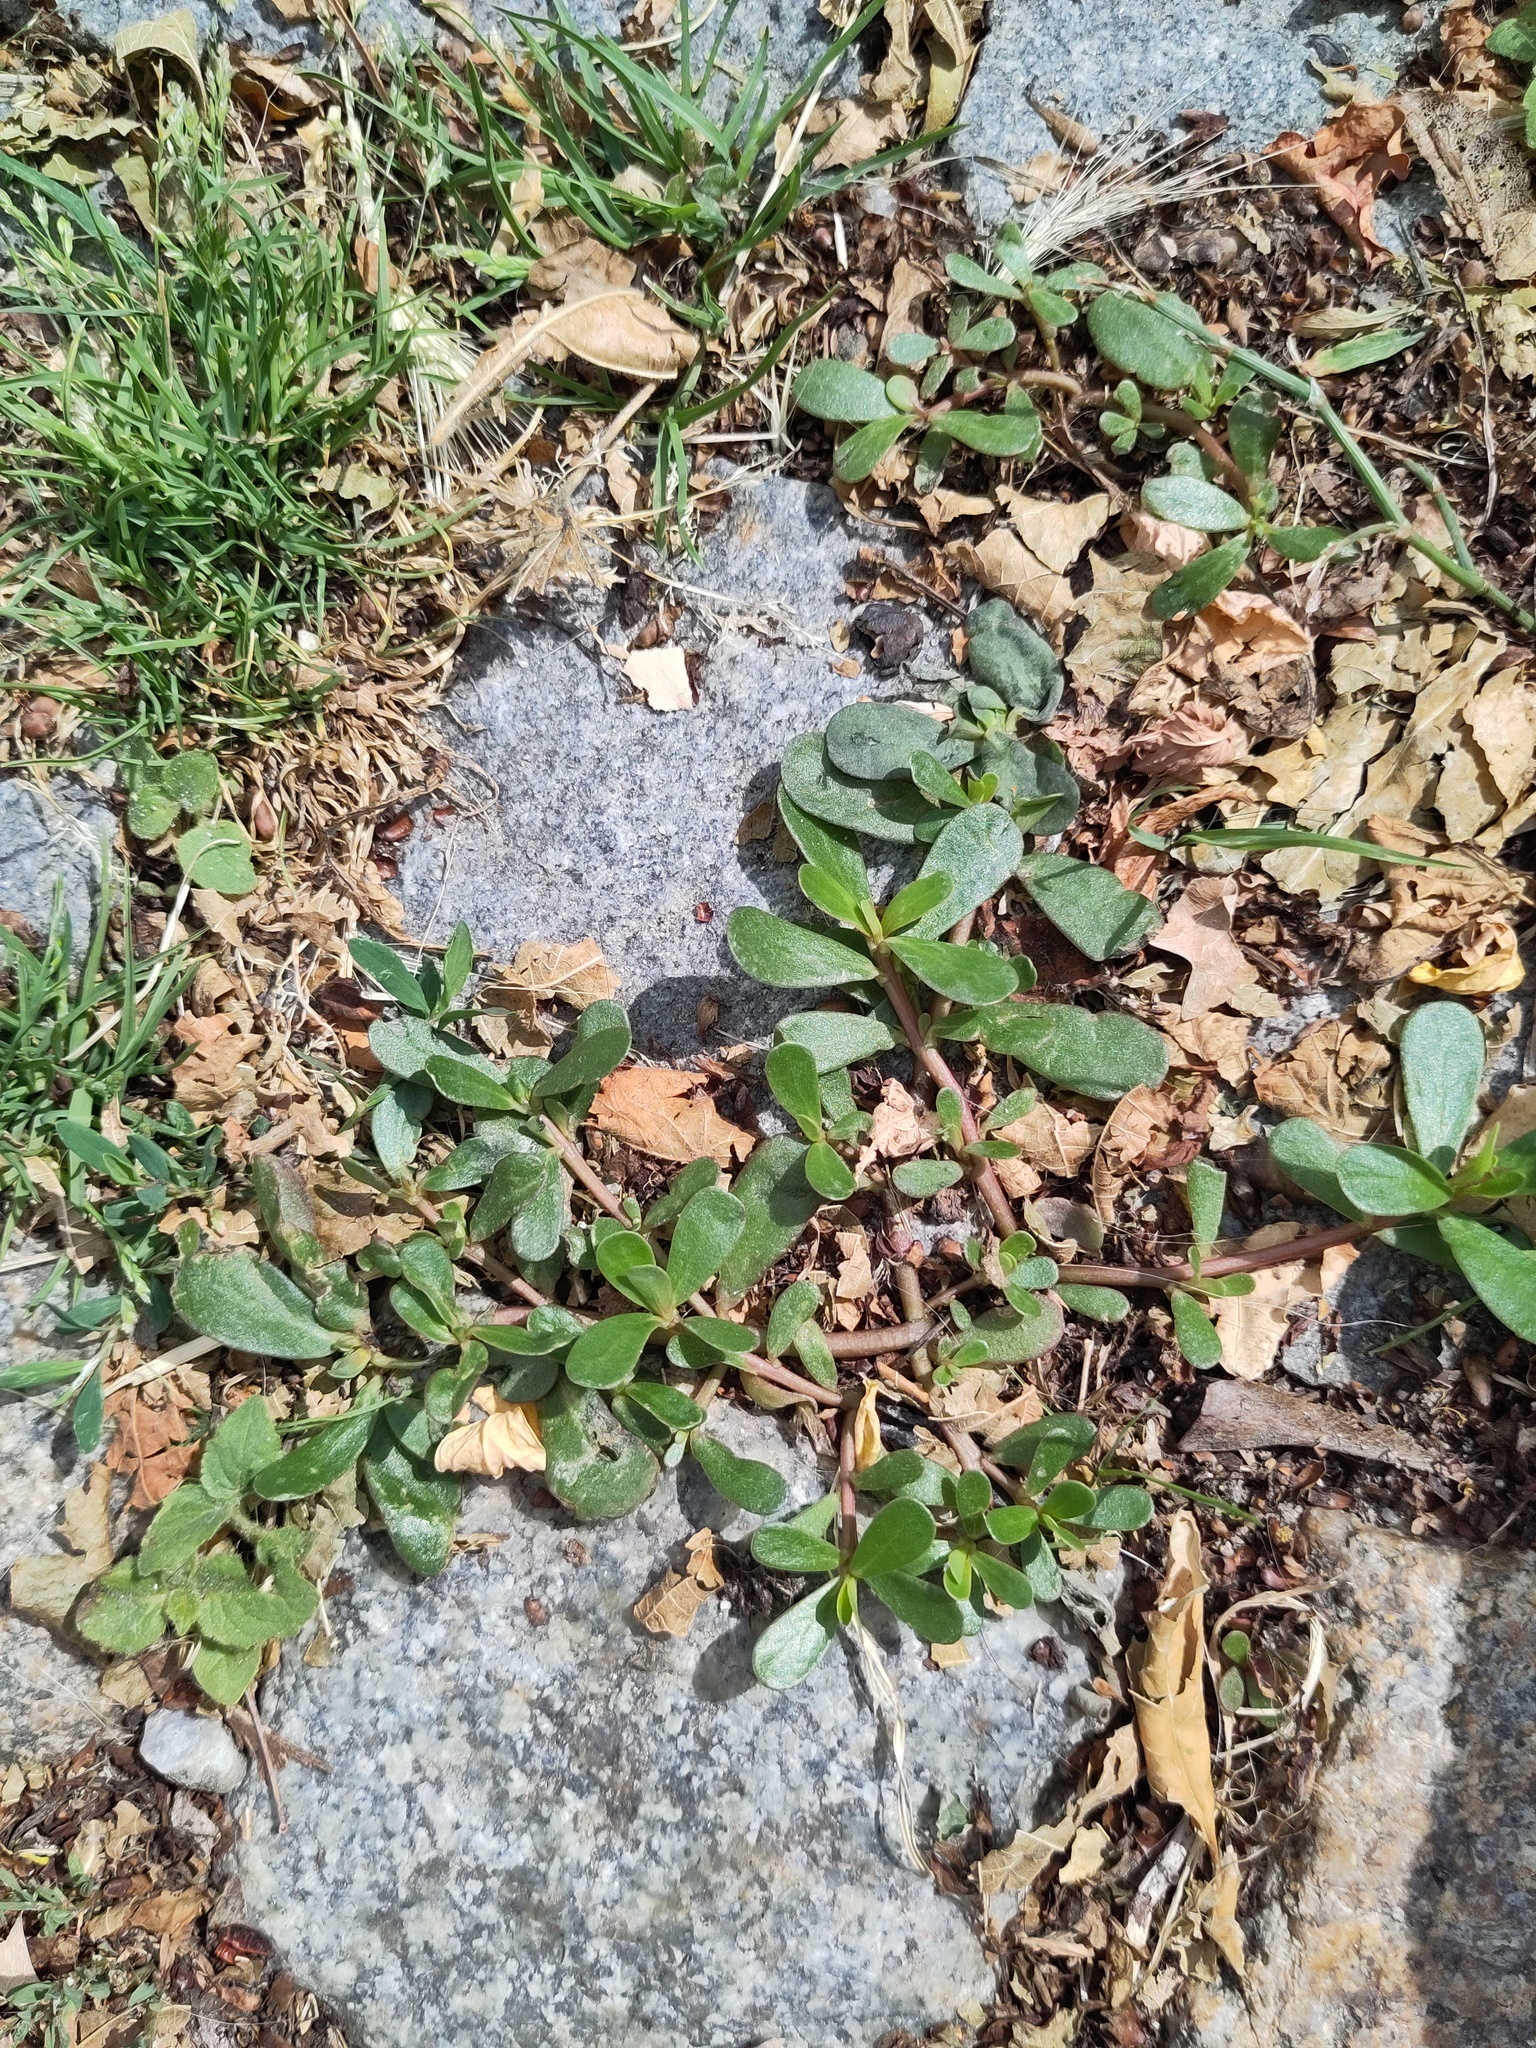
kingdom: Plantae
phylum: Tracheophyta
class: Magnoliopsida
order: Caryophyllales
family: Portulacaceae
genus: Portulaca
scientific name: Portulaca oleracea
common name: Common purslane
